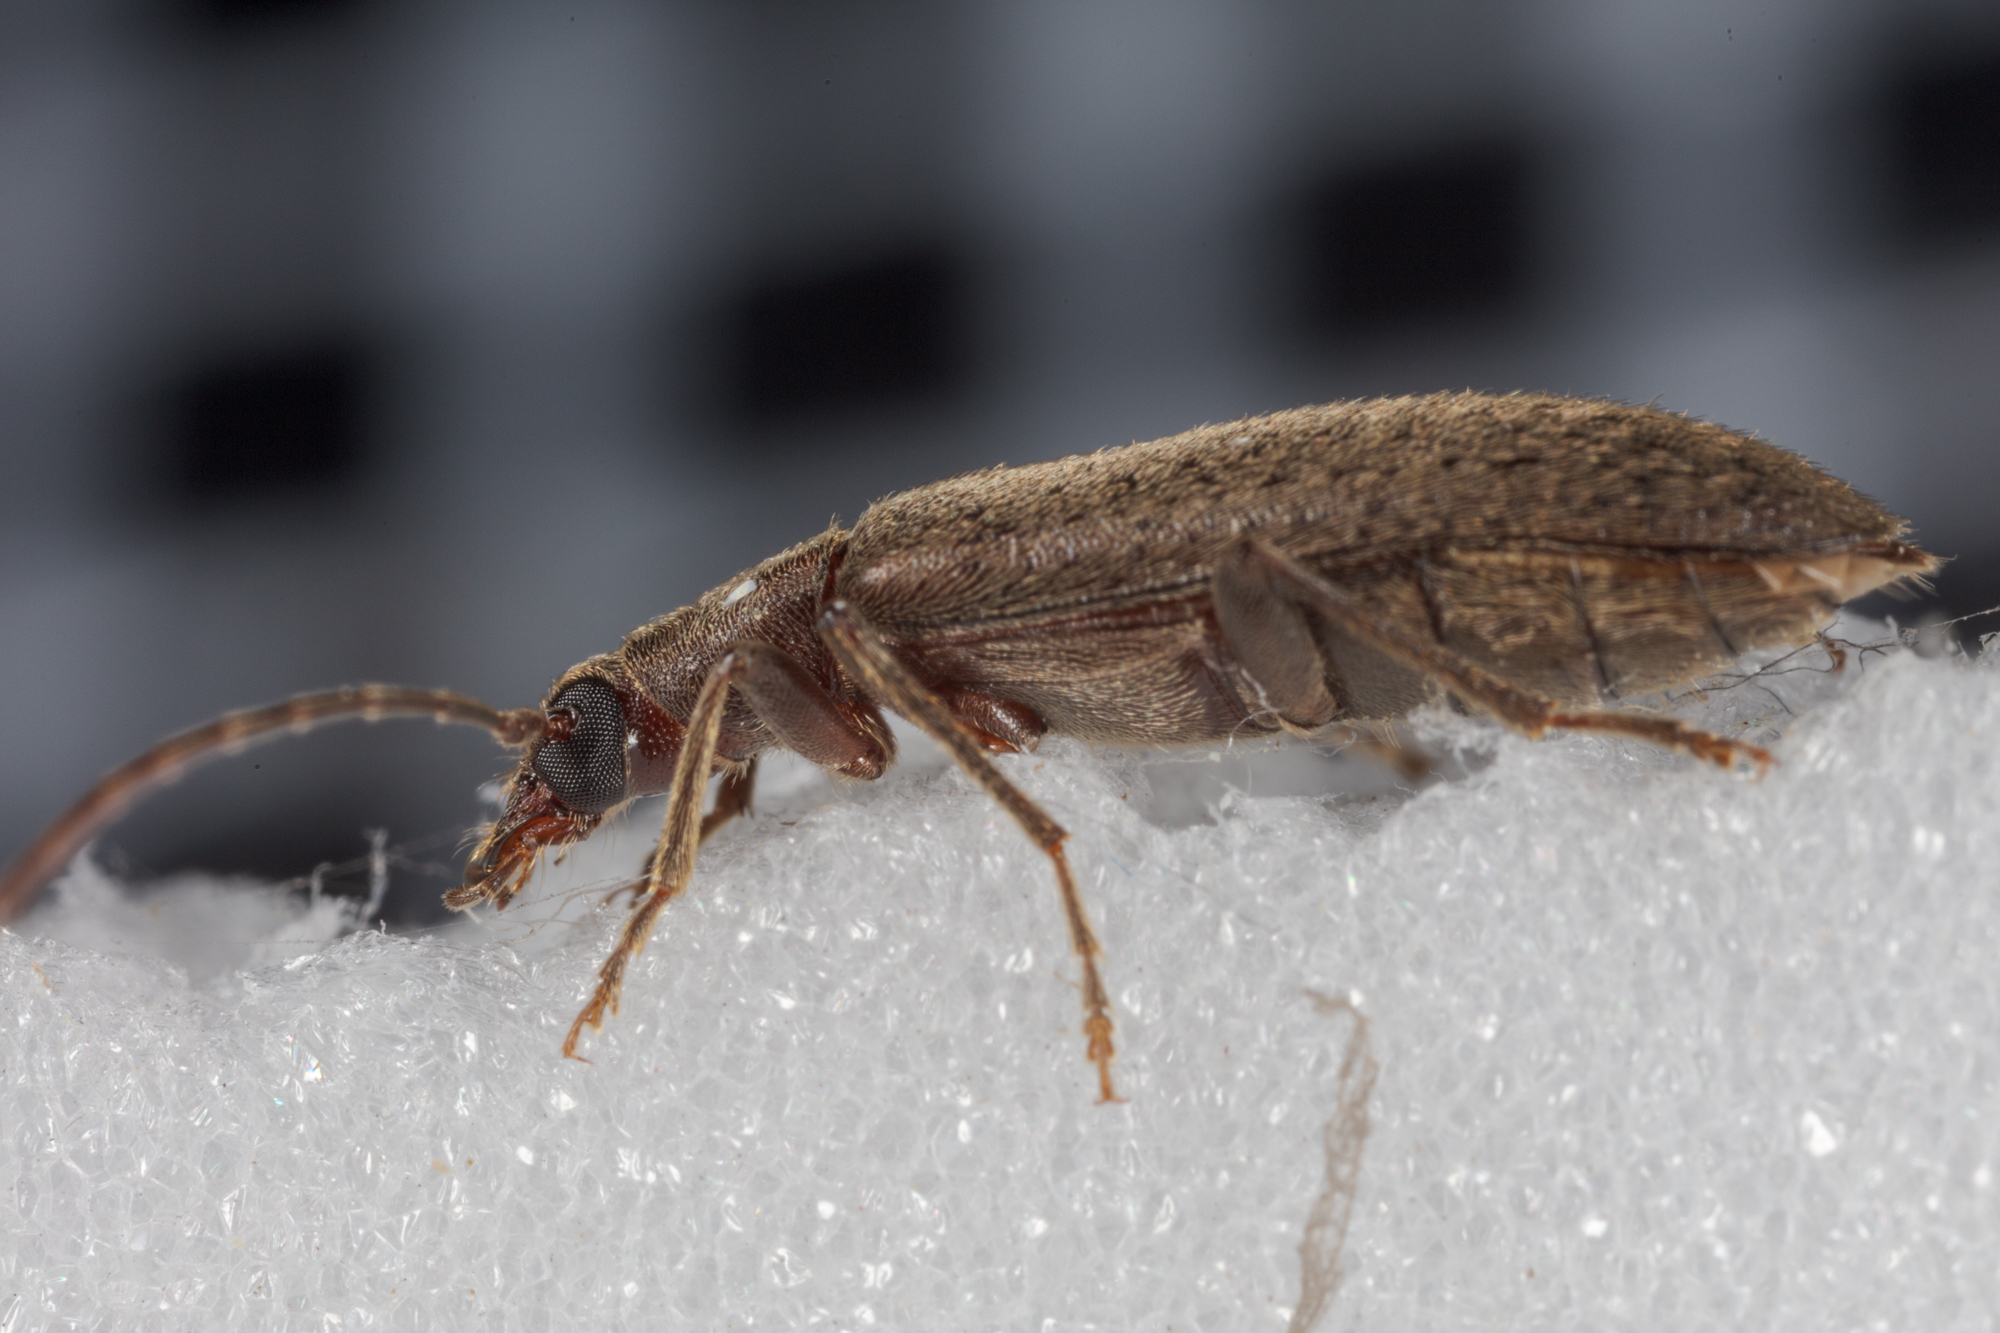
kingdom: Animalia
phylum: Arthropoda
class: Insecta
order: Coleoptera
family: Oedemeridae
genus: Sparedrus
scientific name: Sparedrus aspersus
